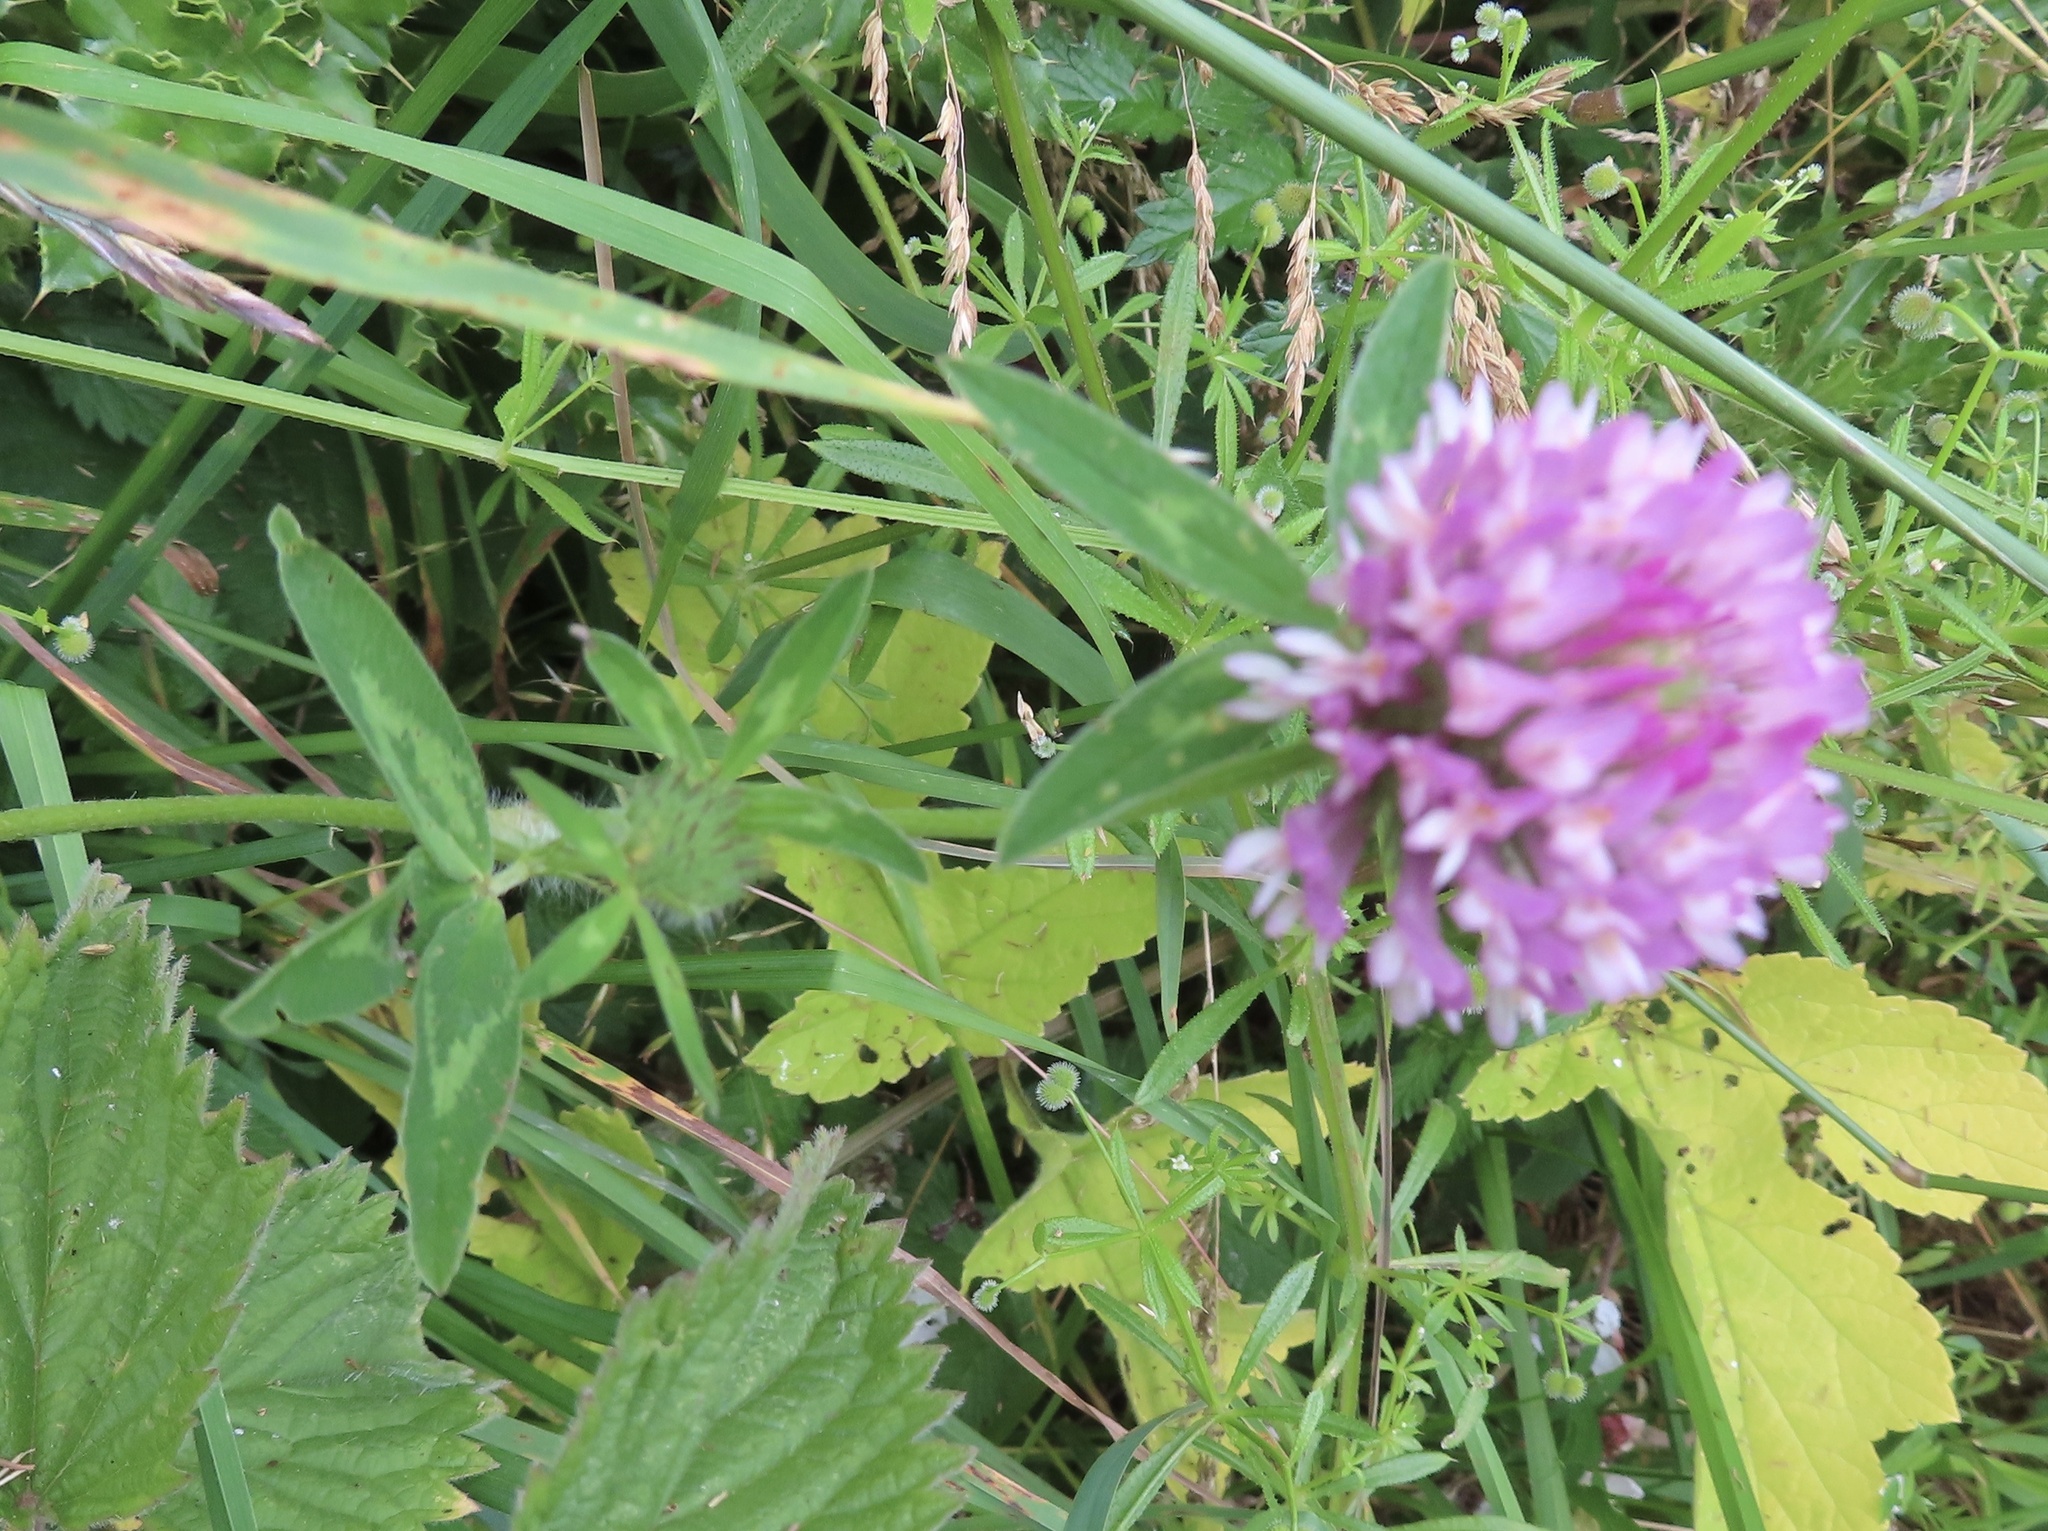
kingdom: Plantae
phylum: Tracheophyta
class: Magnoliopsida
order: Fabales
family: Fabaceae
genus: Trifolium
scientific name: Trifolium pratense
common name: Red clover
